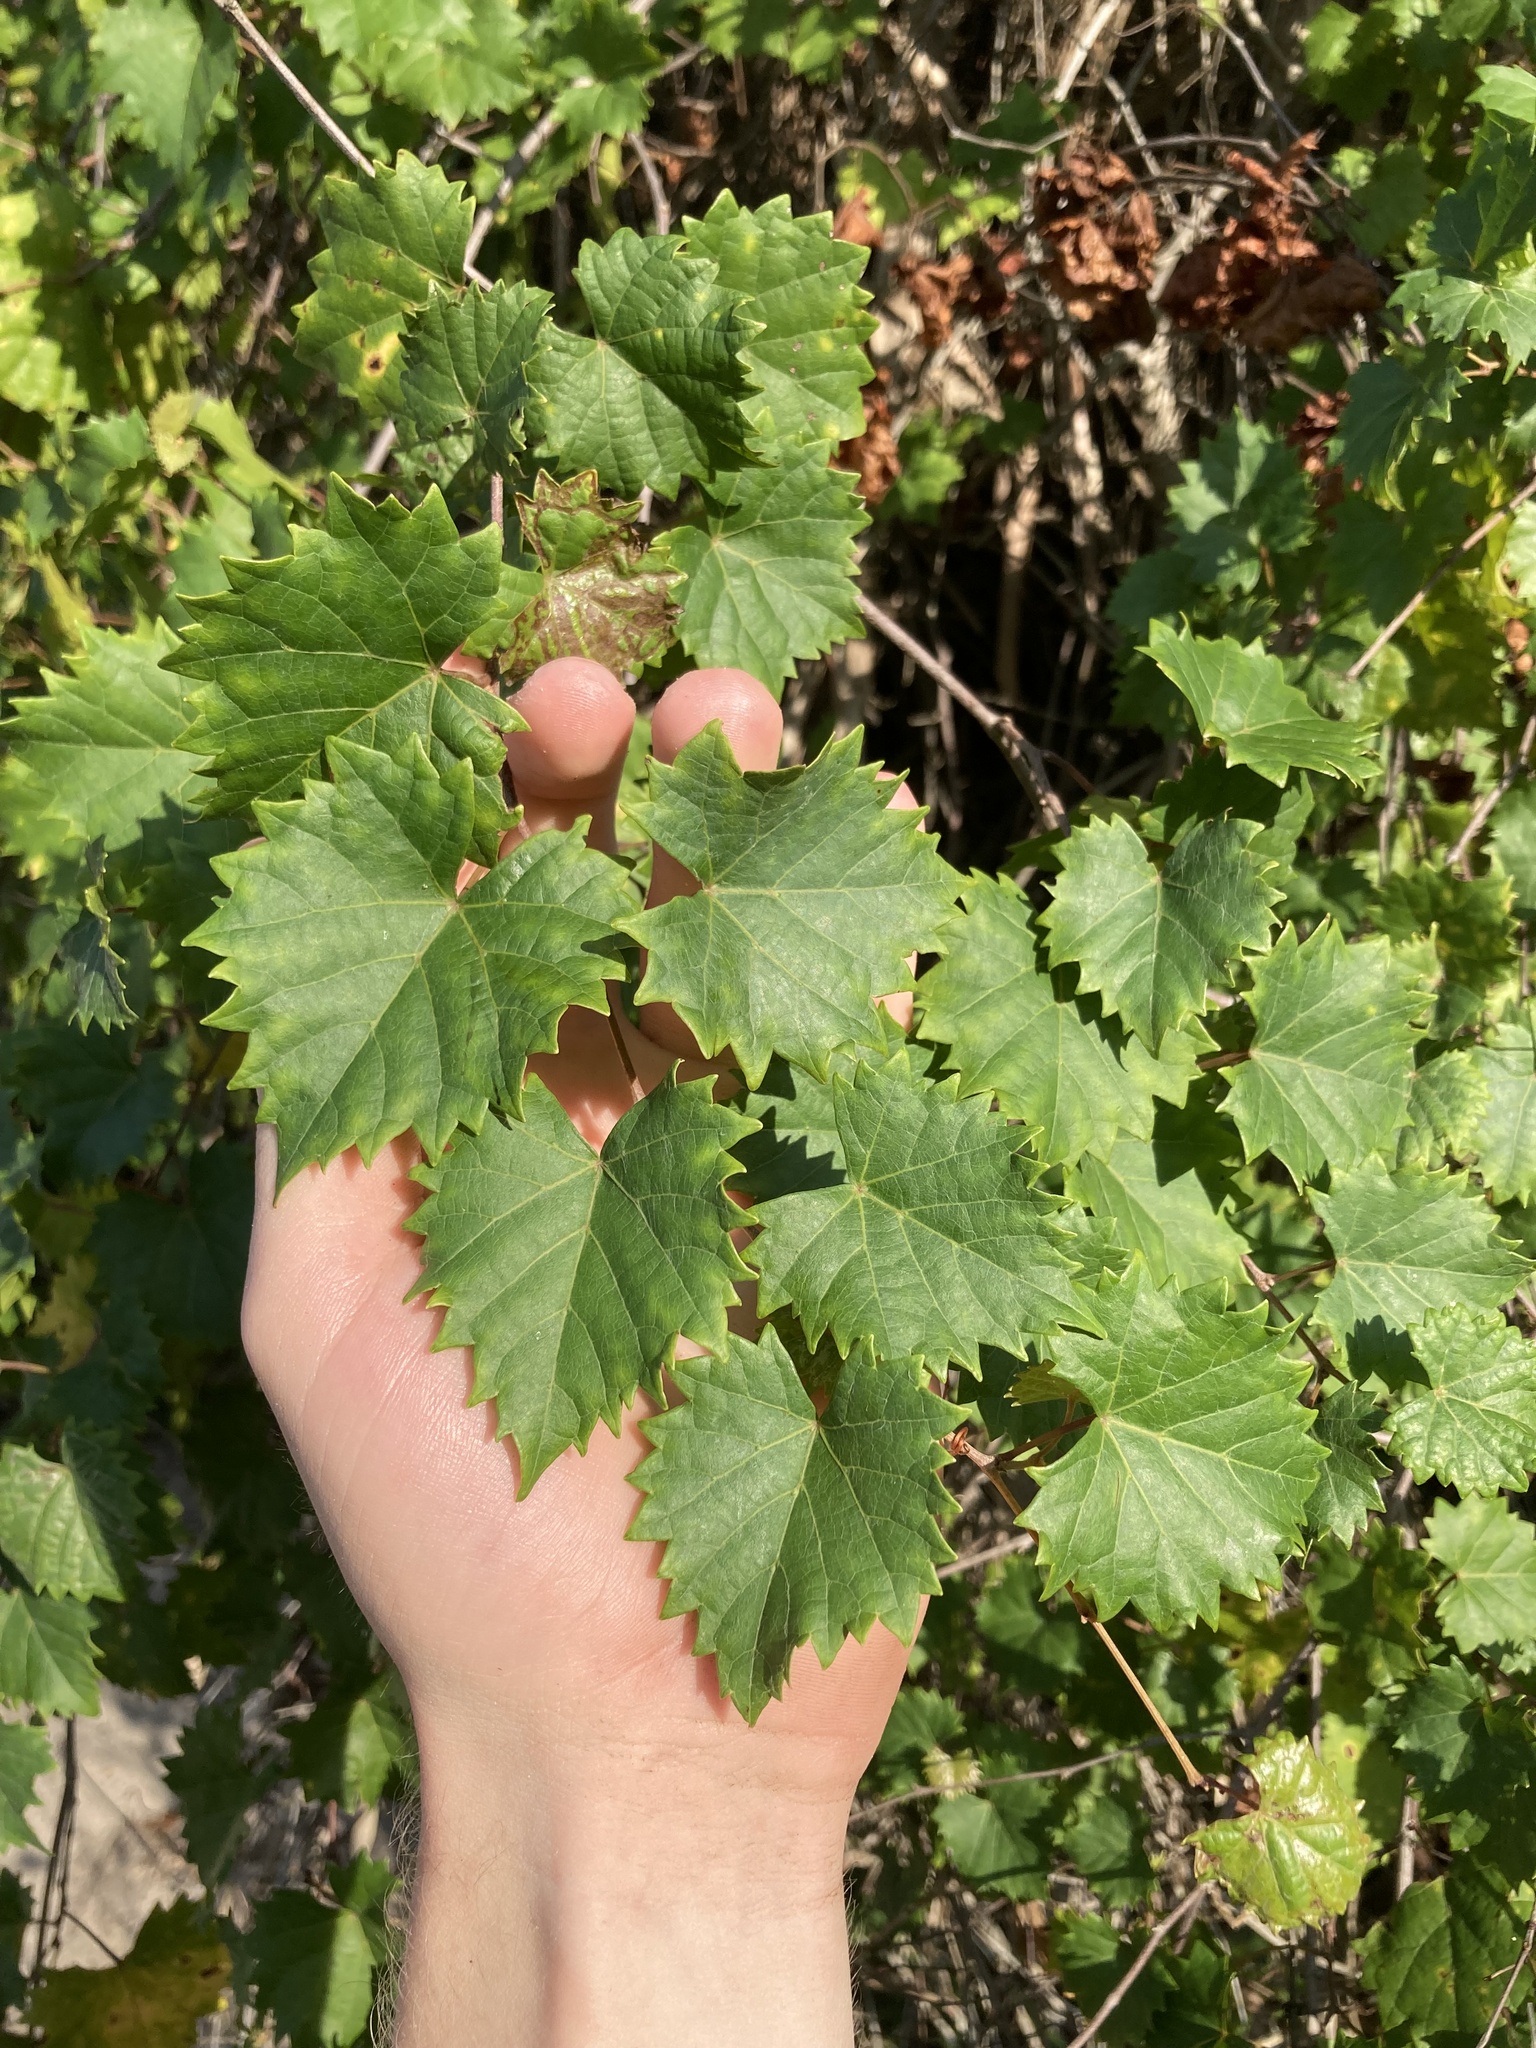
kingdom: Plantae
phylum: Tracheophyta
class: Magnoliopsida
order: Vitales
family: Vitaceae
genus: Vitis
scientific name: Vitis rotundifolia
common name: Muscadine grape
